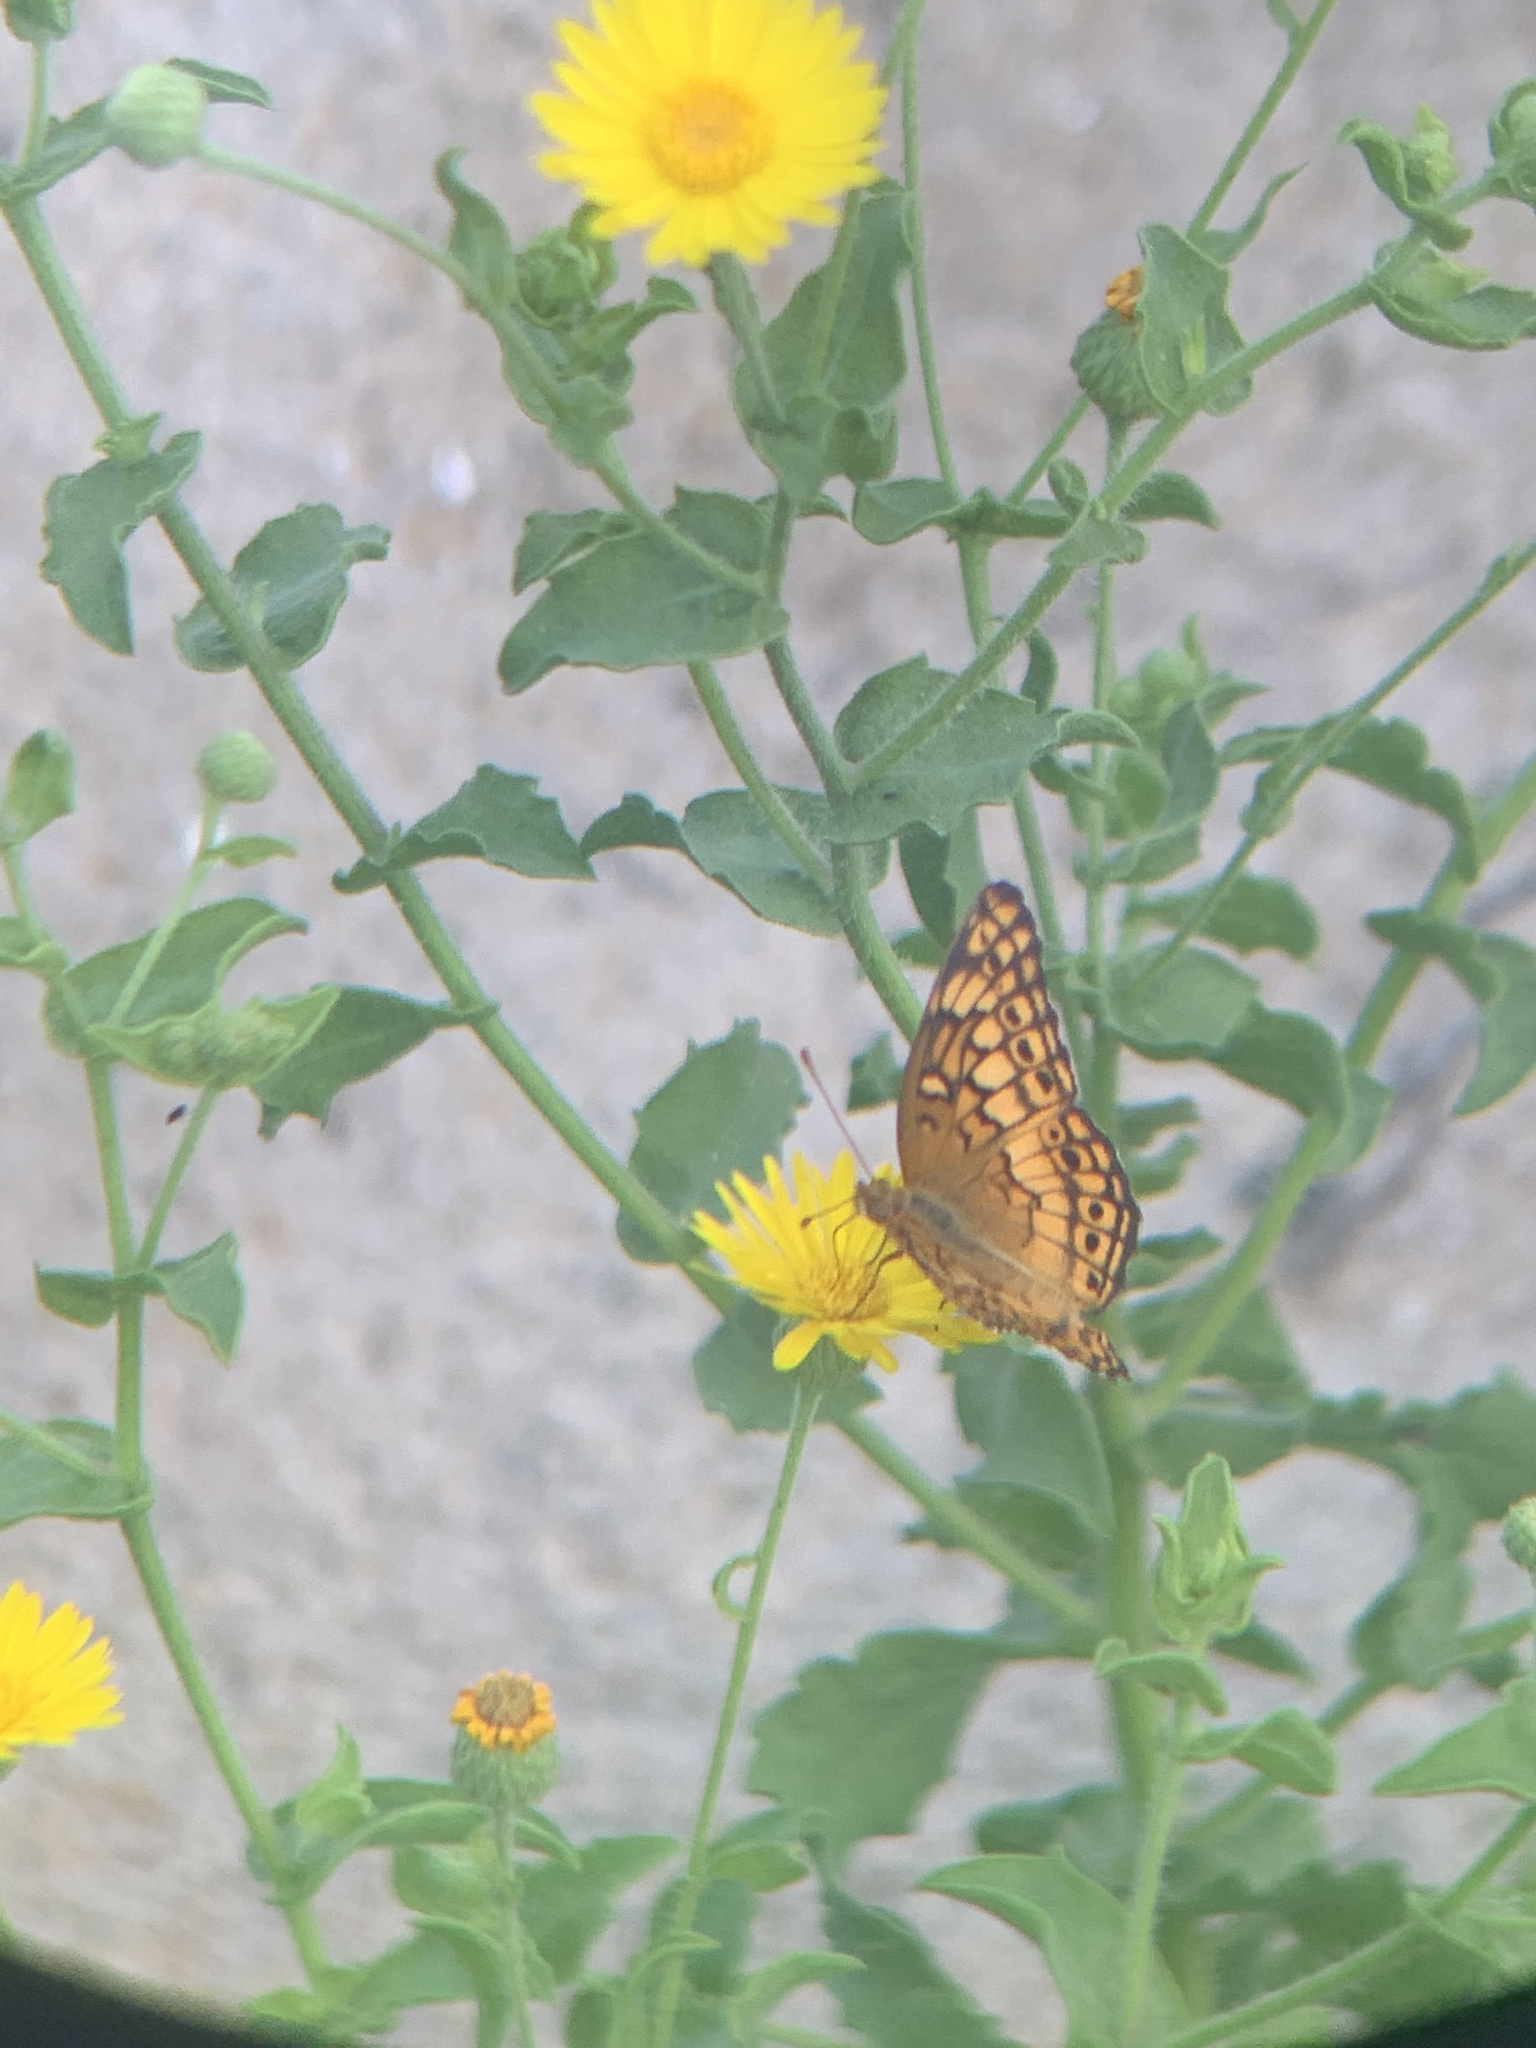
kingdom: Animalia
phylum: Arthropoda
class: Insecta
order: Lepidoptera
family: Nymphalidae
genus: Euptoieta
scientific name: Euptoieta claudia
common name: Variegated fritillary
